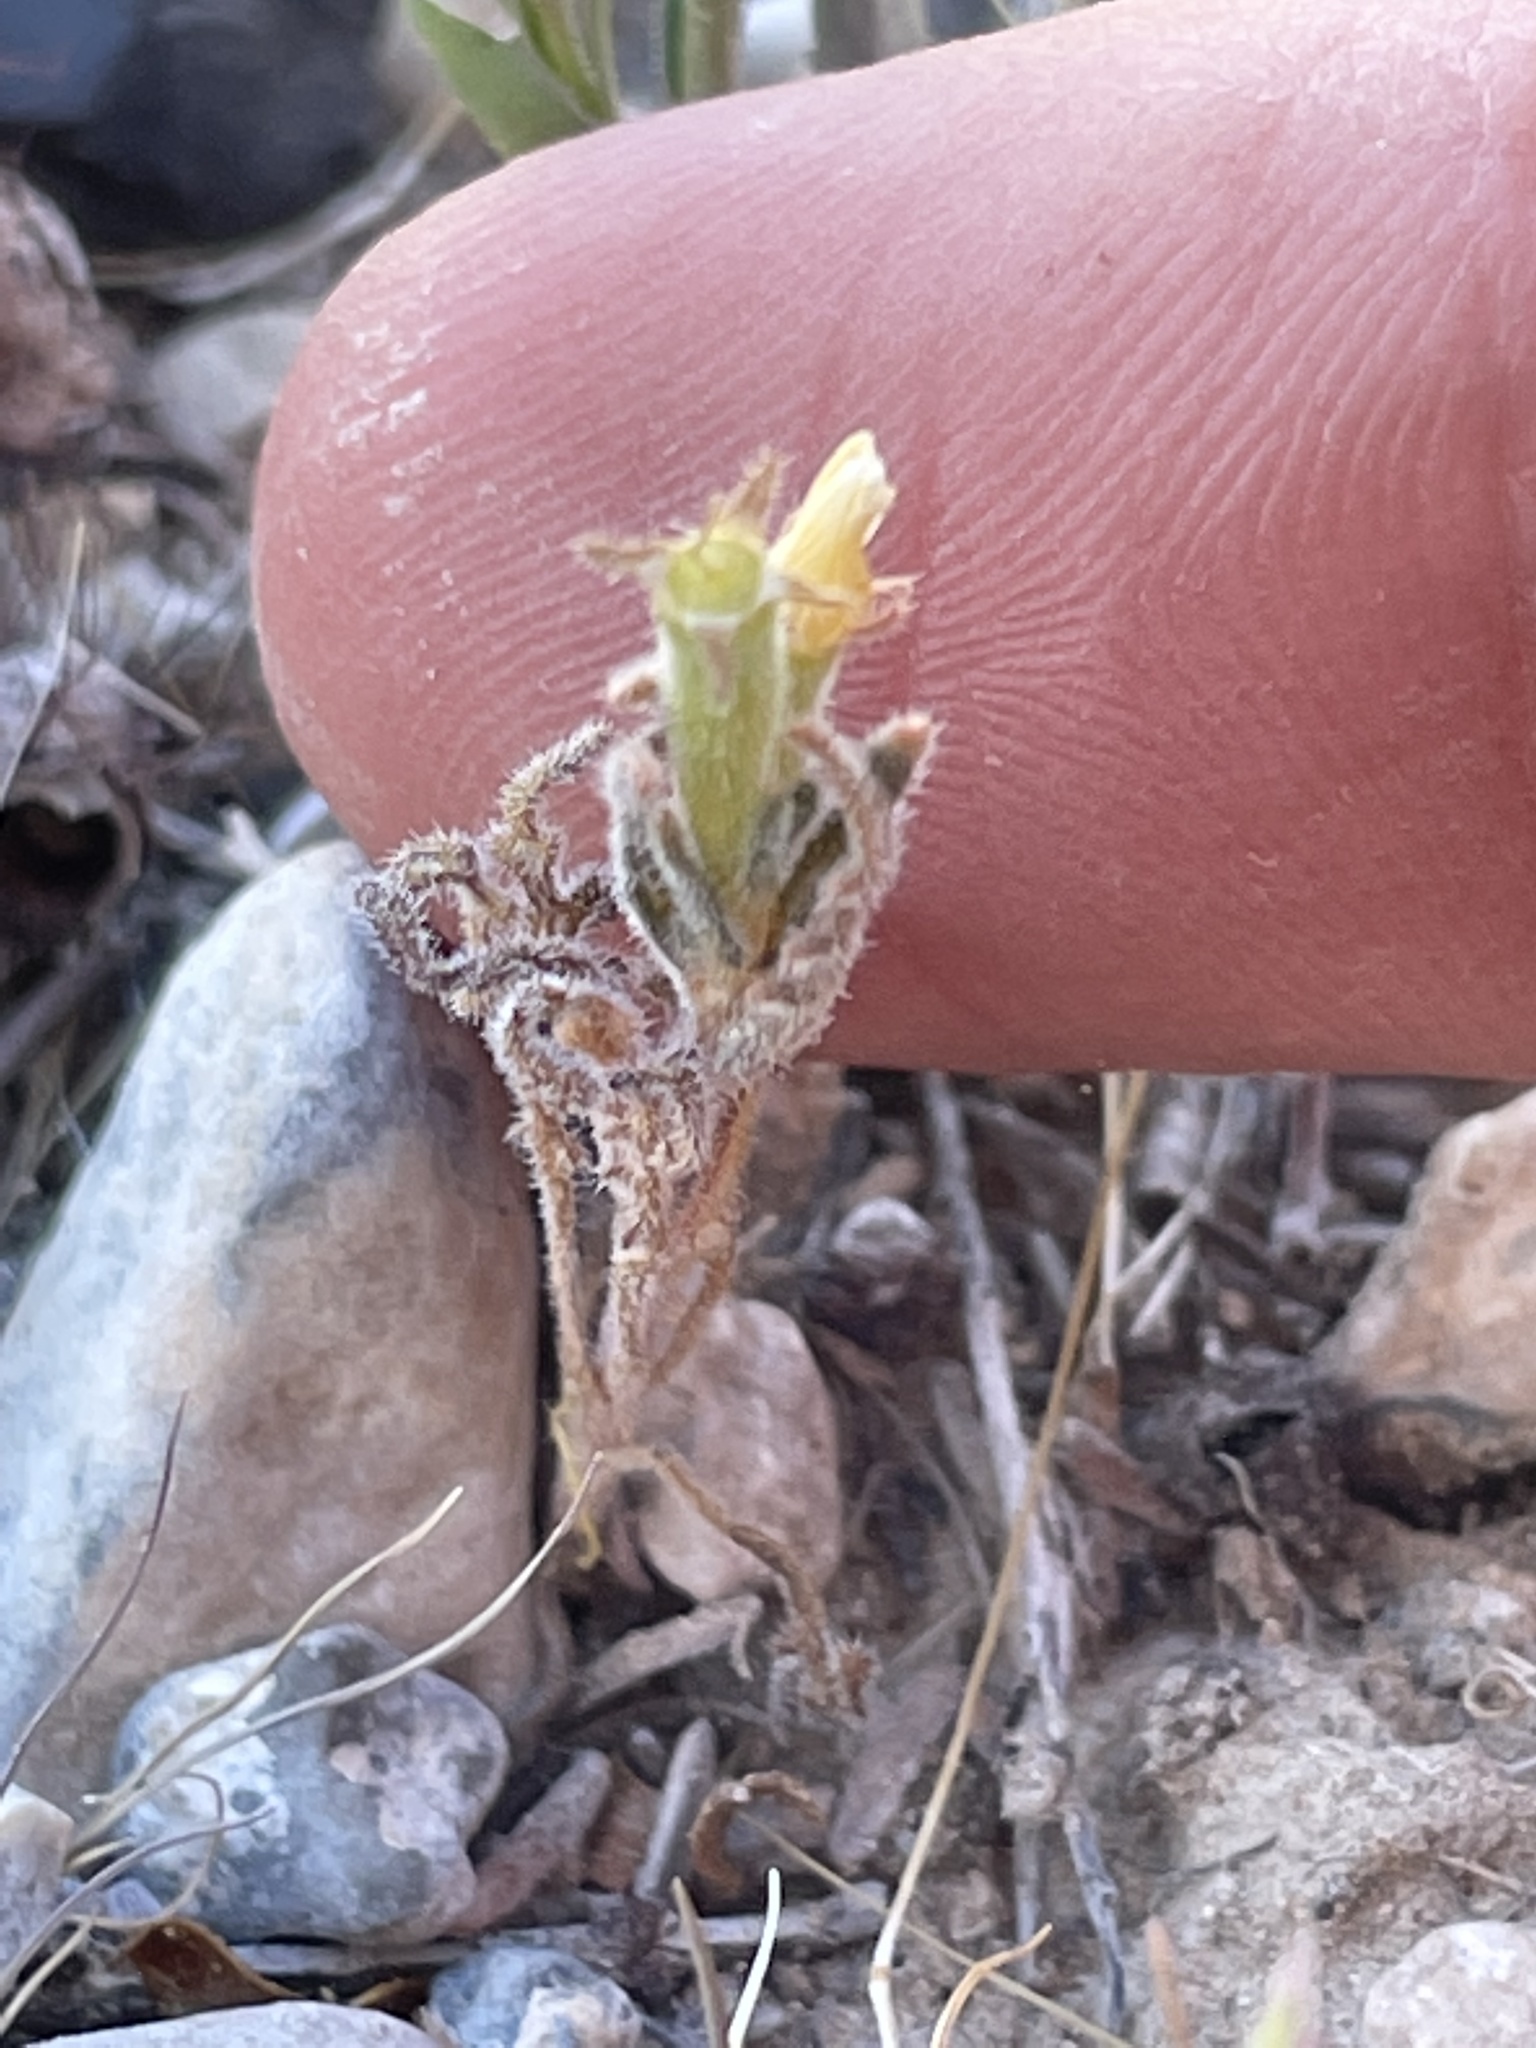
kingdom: Plantae
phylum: Tracheophyta
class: Magnoliopsida
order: Cornales
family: Loasaceae
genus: Mentzelia
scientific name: Mentzelia albicaulis
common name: White-stem blazingstar
